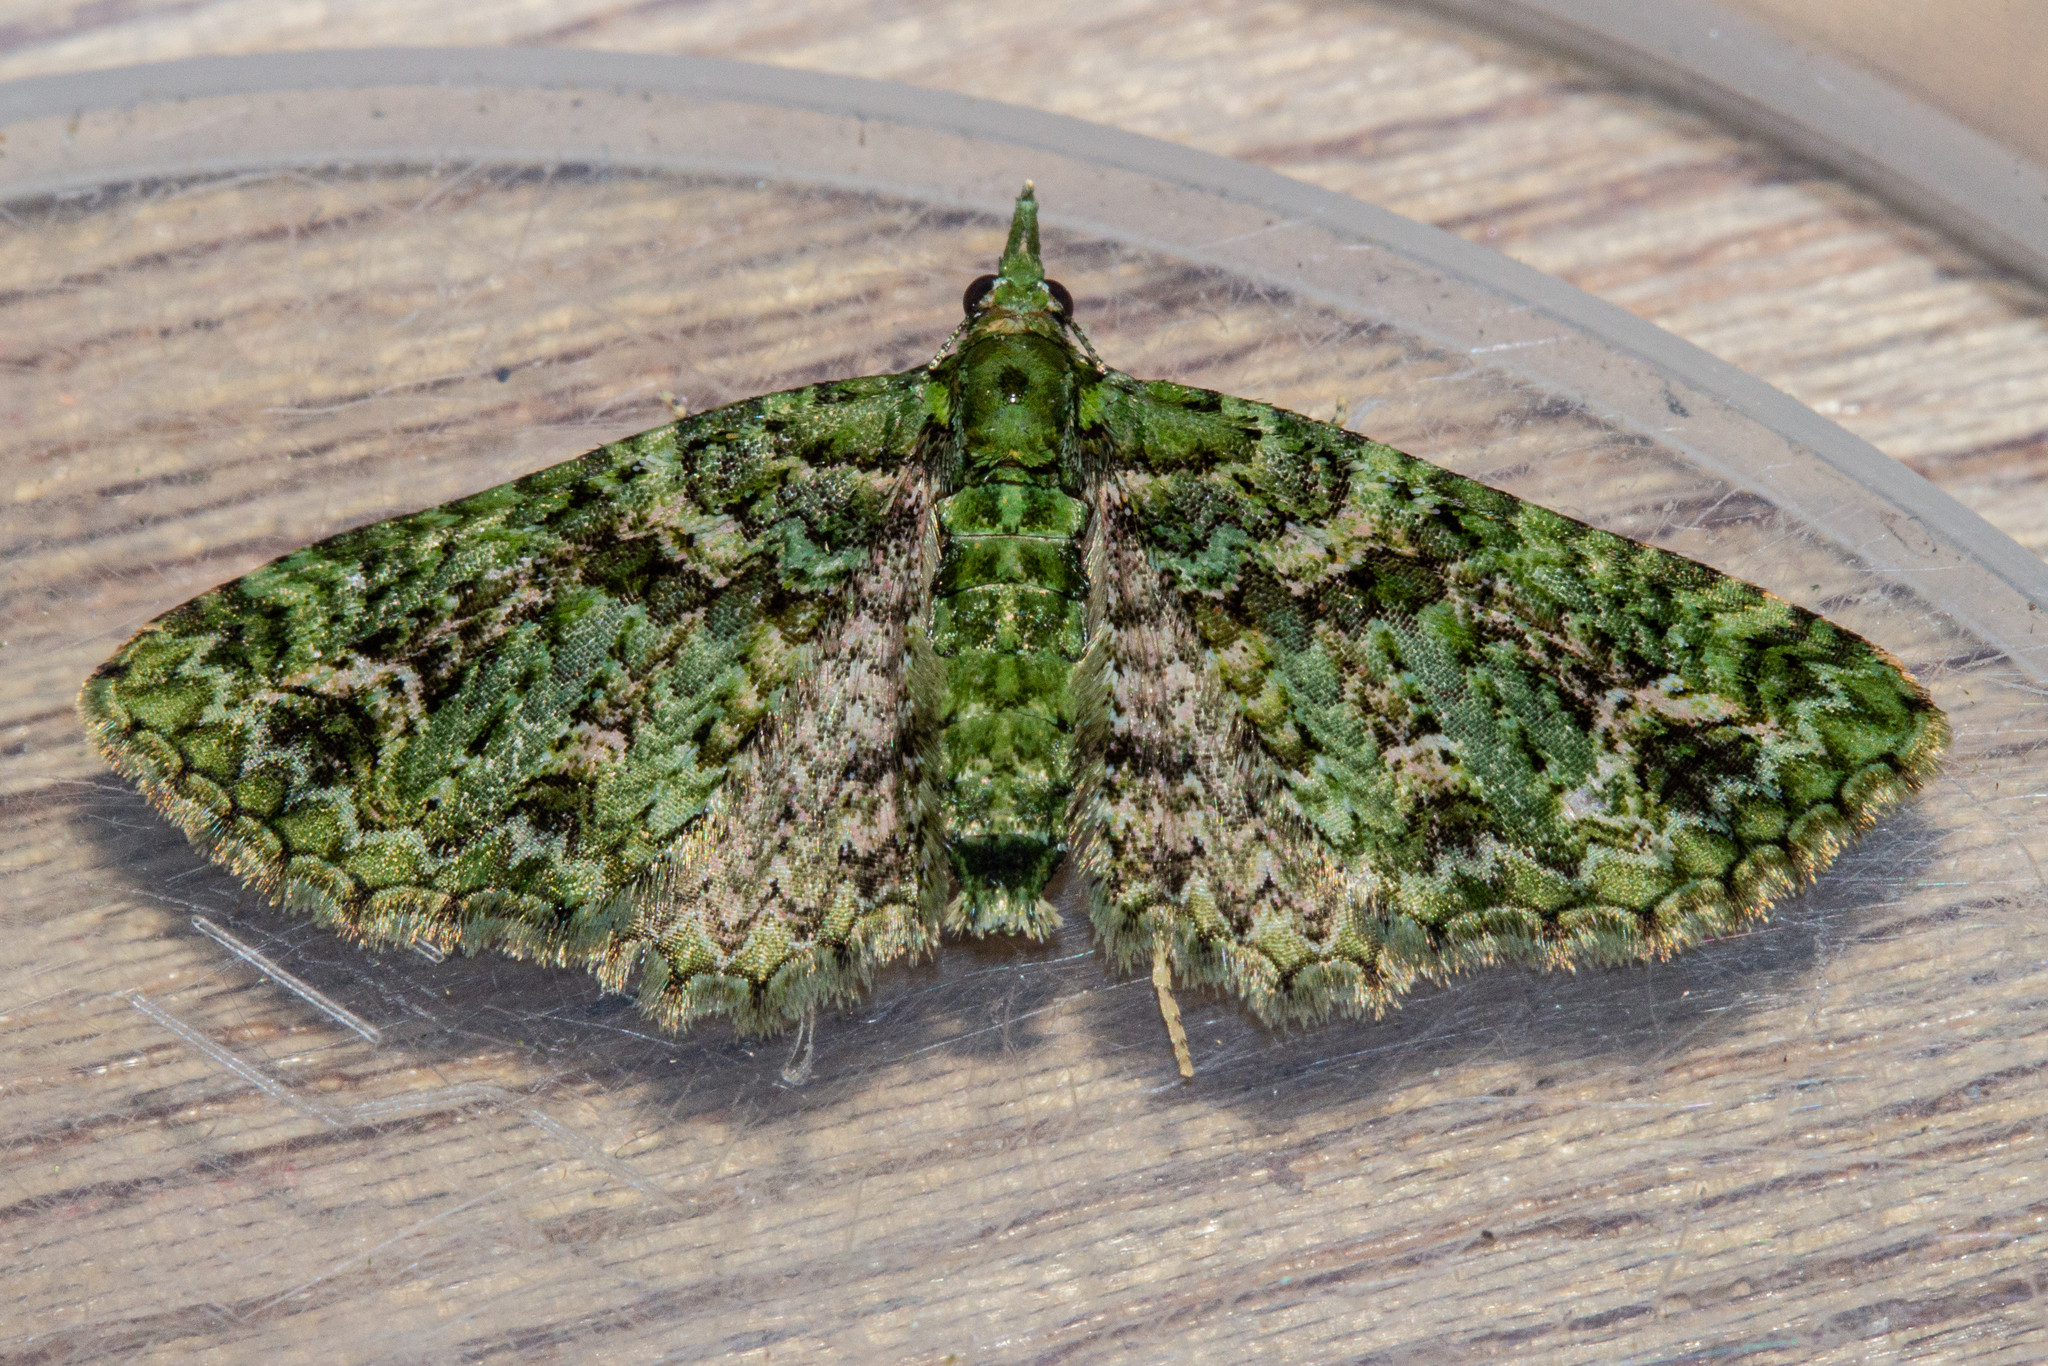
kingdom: Animalia
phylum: Arthropoda
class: Insecta
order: Lepidoptera
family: Geometridae
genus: Pasiphila
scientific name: Pasiphila muscosata
